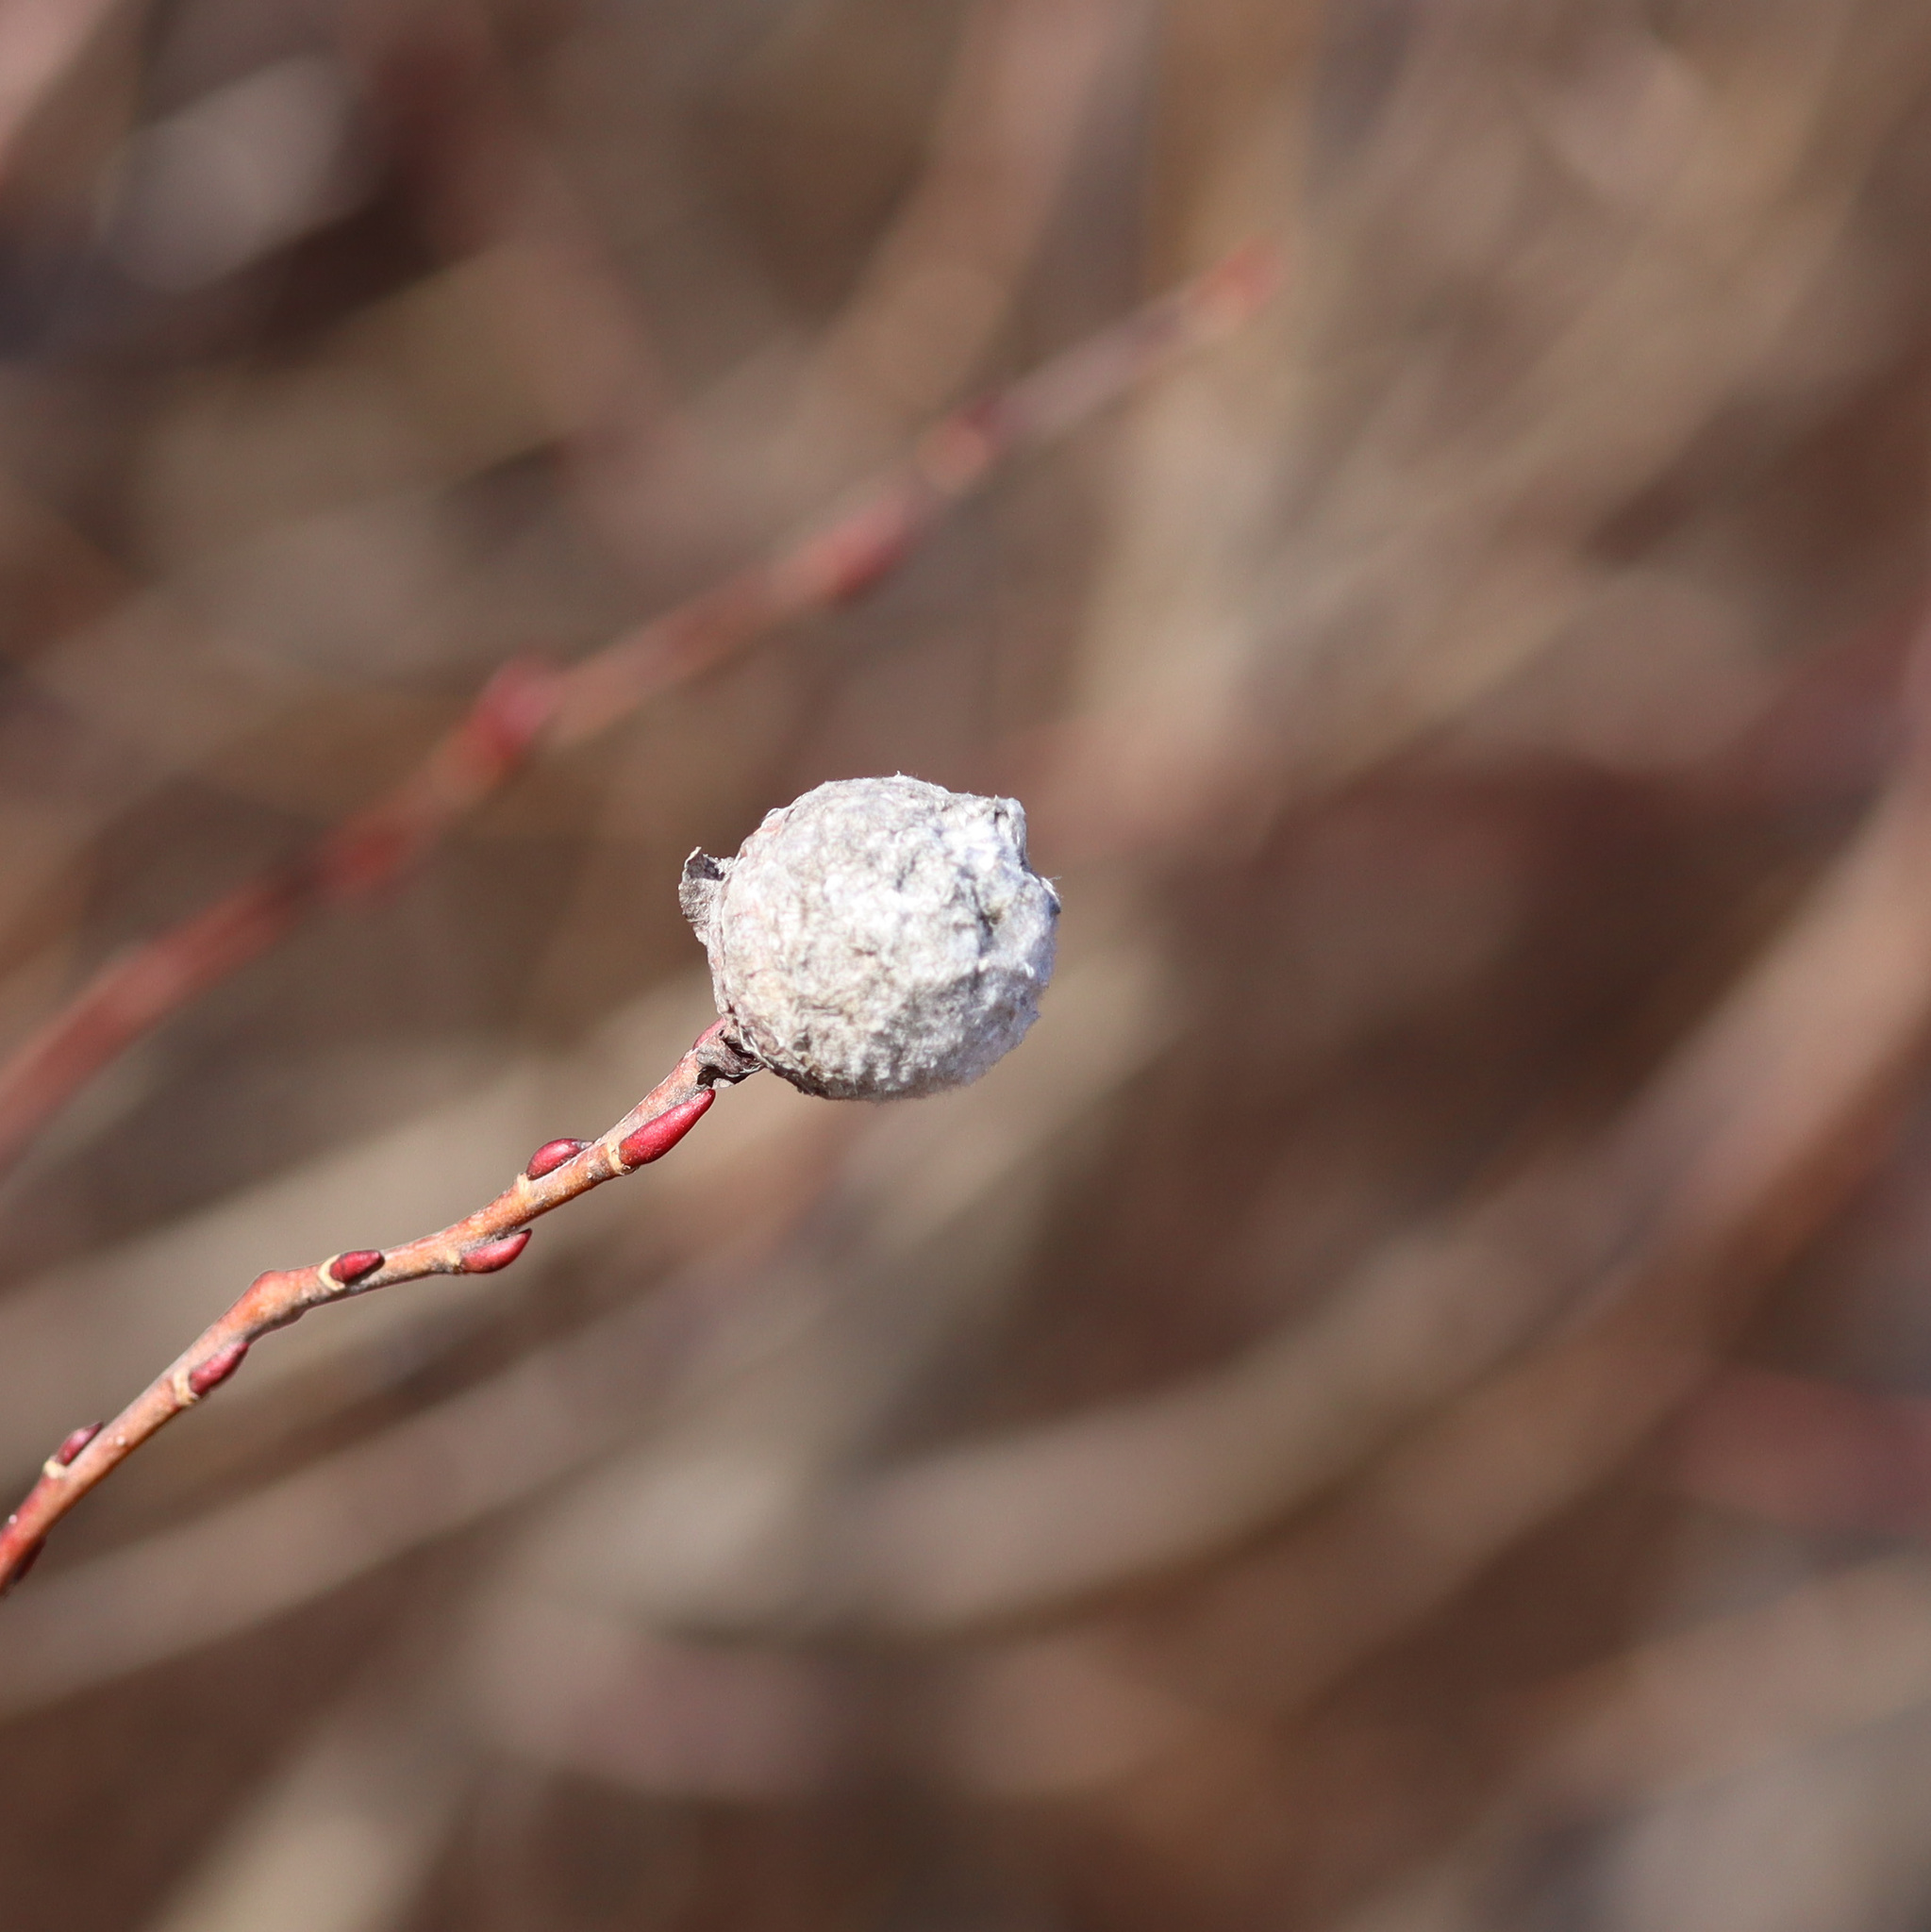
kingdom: Animalia
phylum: Arthropoda
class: Insecta
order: Diptera
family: Cecidomyiidae
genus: Rabdophaga
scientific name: Rabdophaga strobiloides
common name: Willow pinecone gall midge
